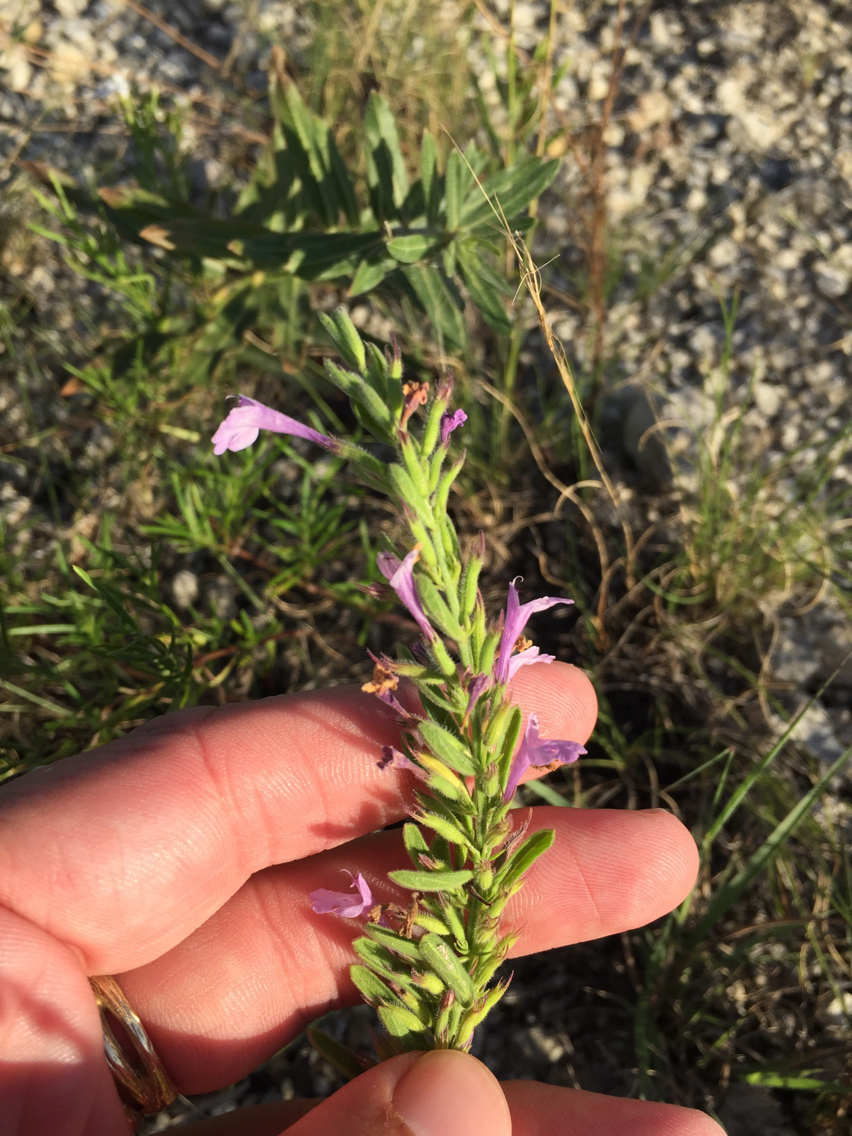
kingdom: Plantae
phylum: Tracheophyta
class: Magnoliopsida
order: Lamiales
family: Lamiaceae
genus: Hedeoma
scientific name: Hedeoma drummondii
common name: New mexico pennyroyal
